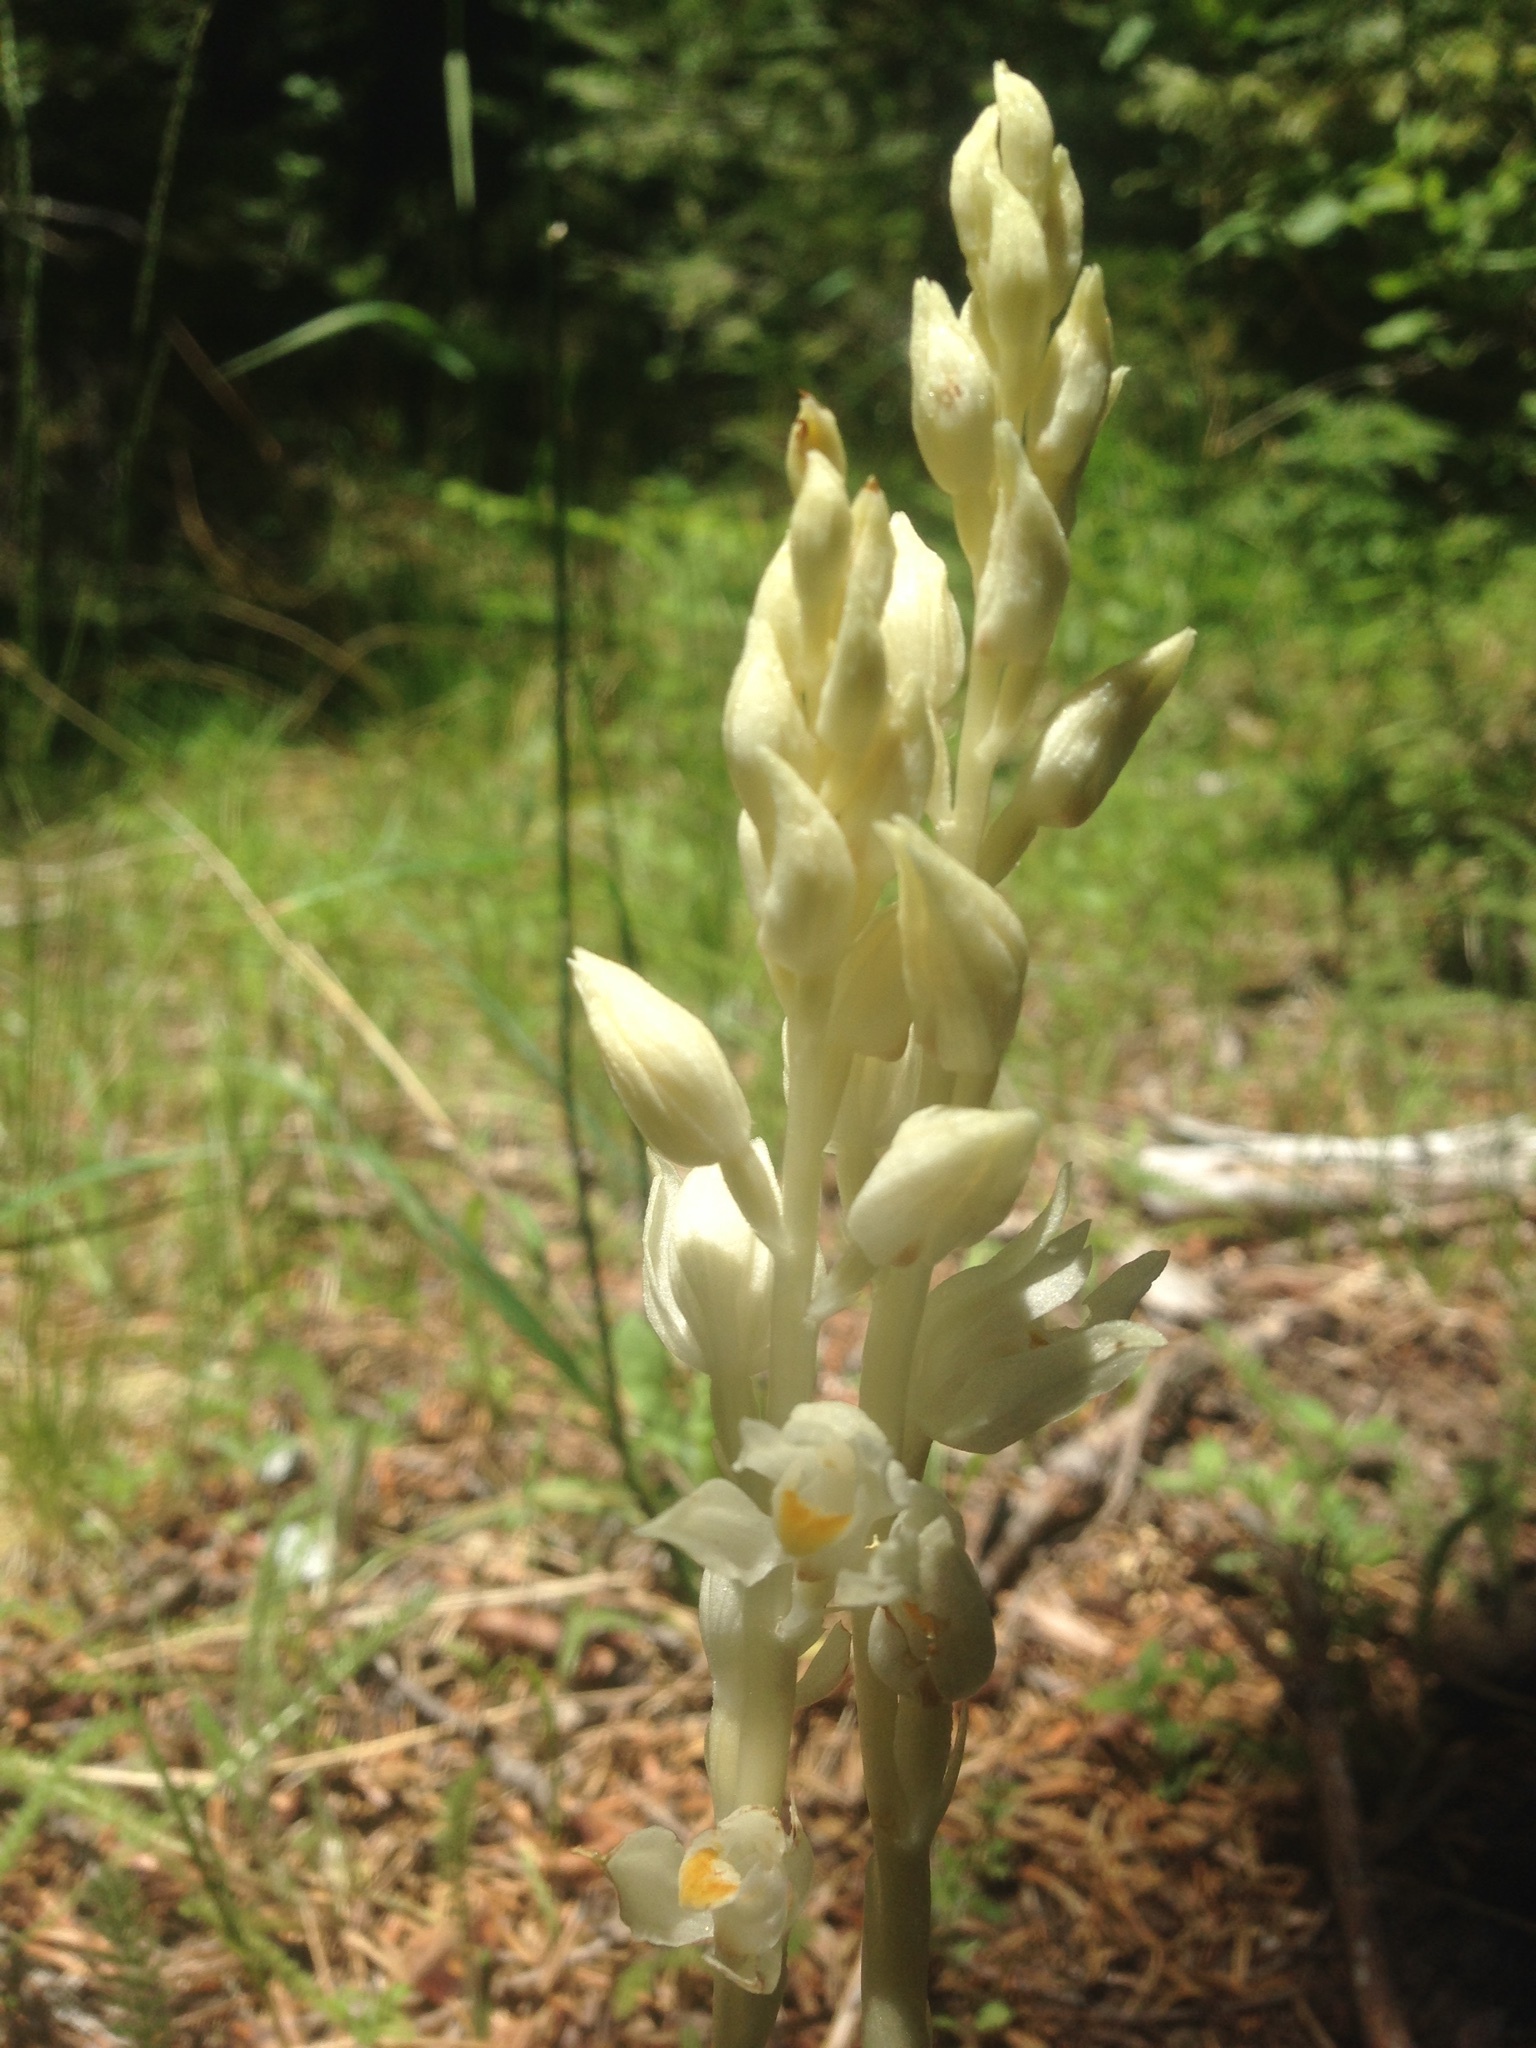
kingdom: Plantae
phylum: Tracheophyta
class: Liliopsida
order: Asparagales
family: Orchidaceae
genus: Cephalanthera
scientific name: Cephalanthera austiniae
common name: Phantom orchid
